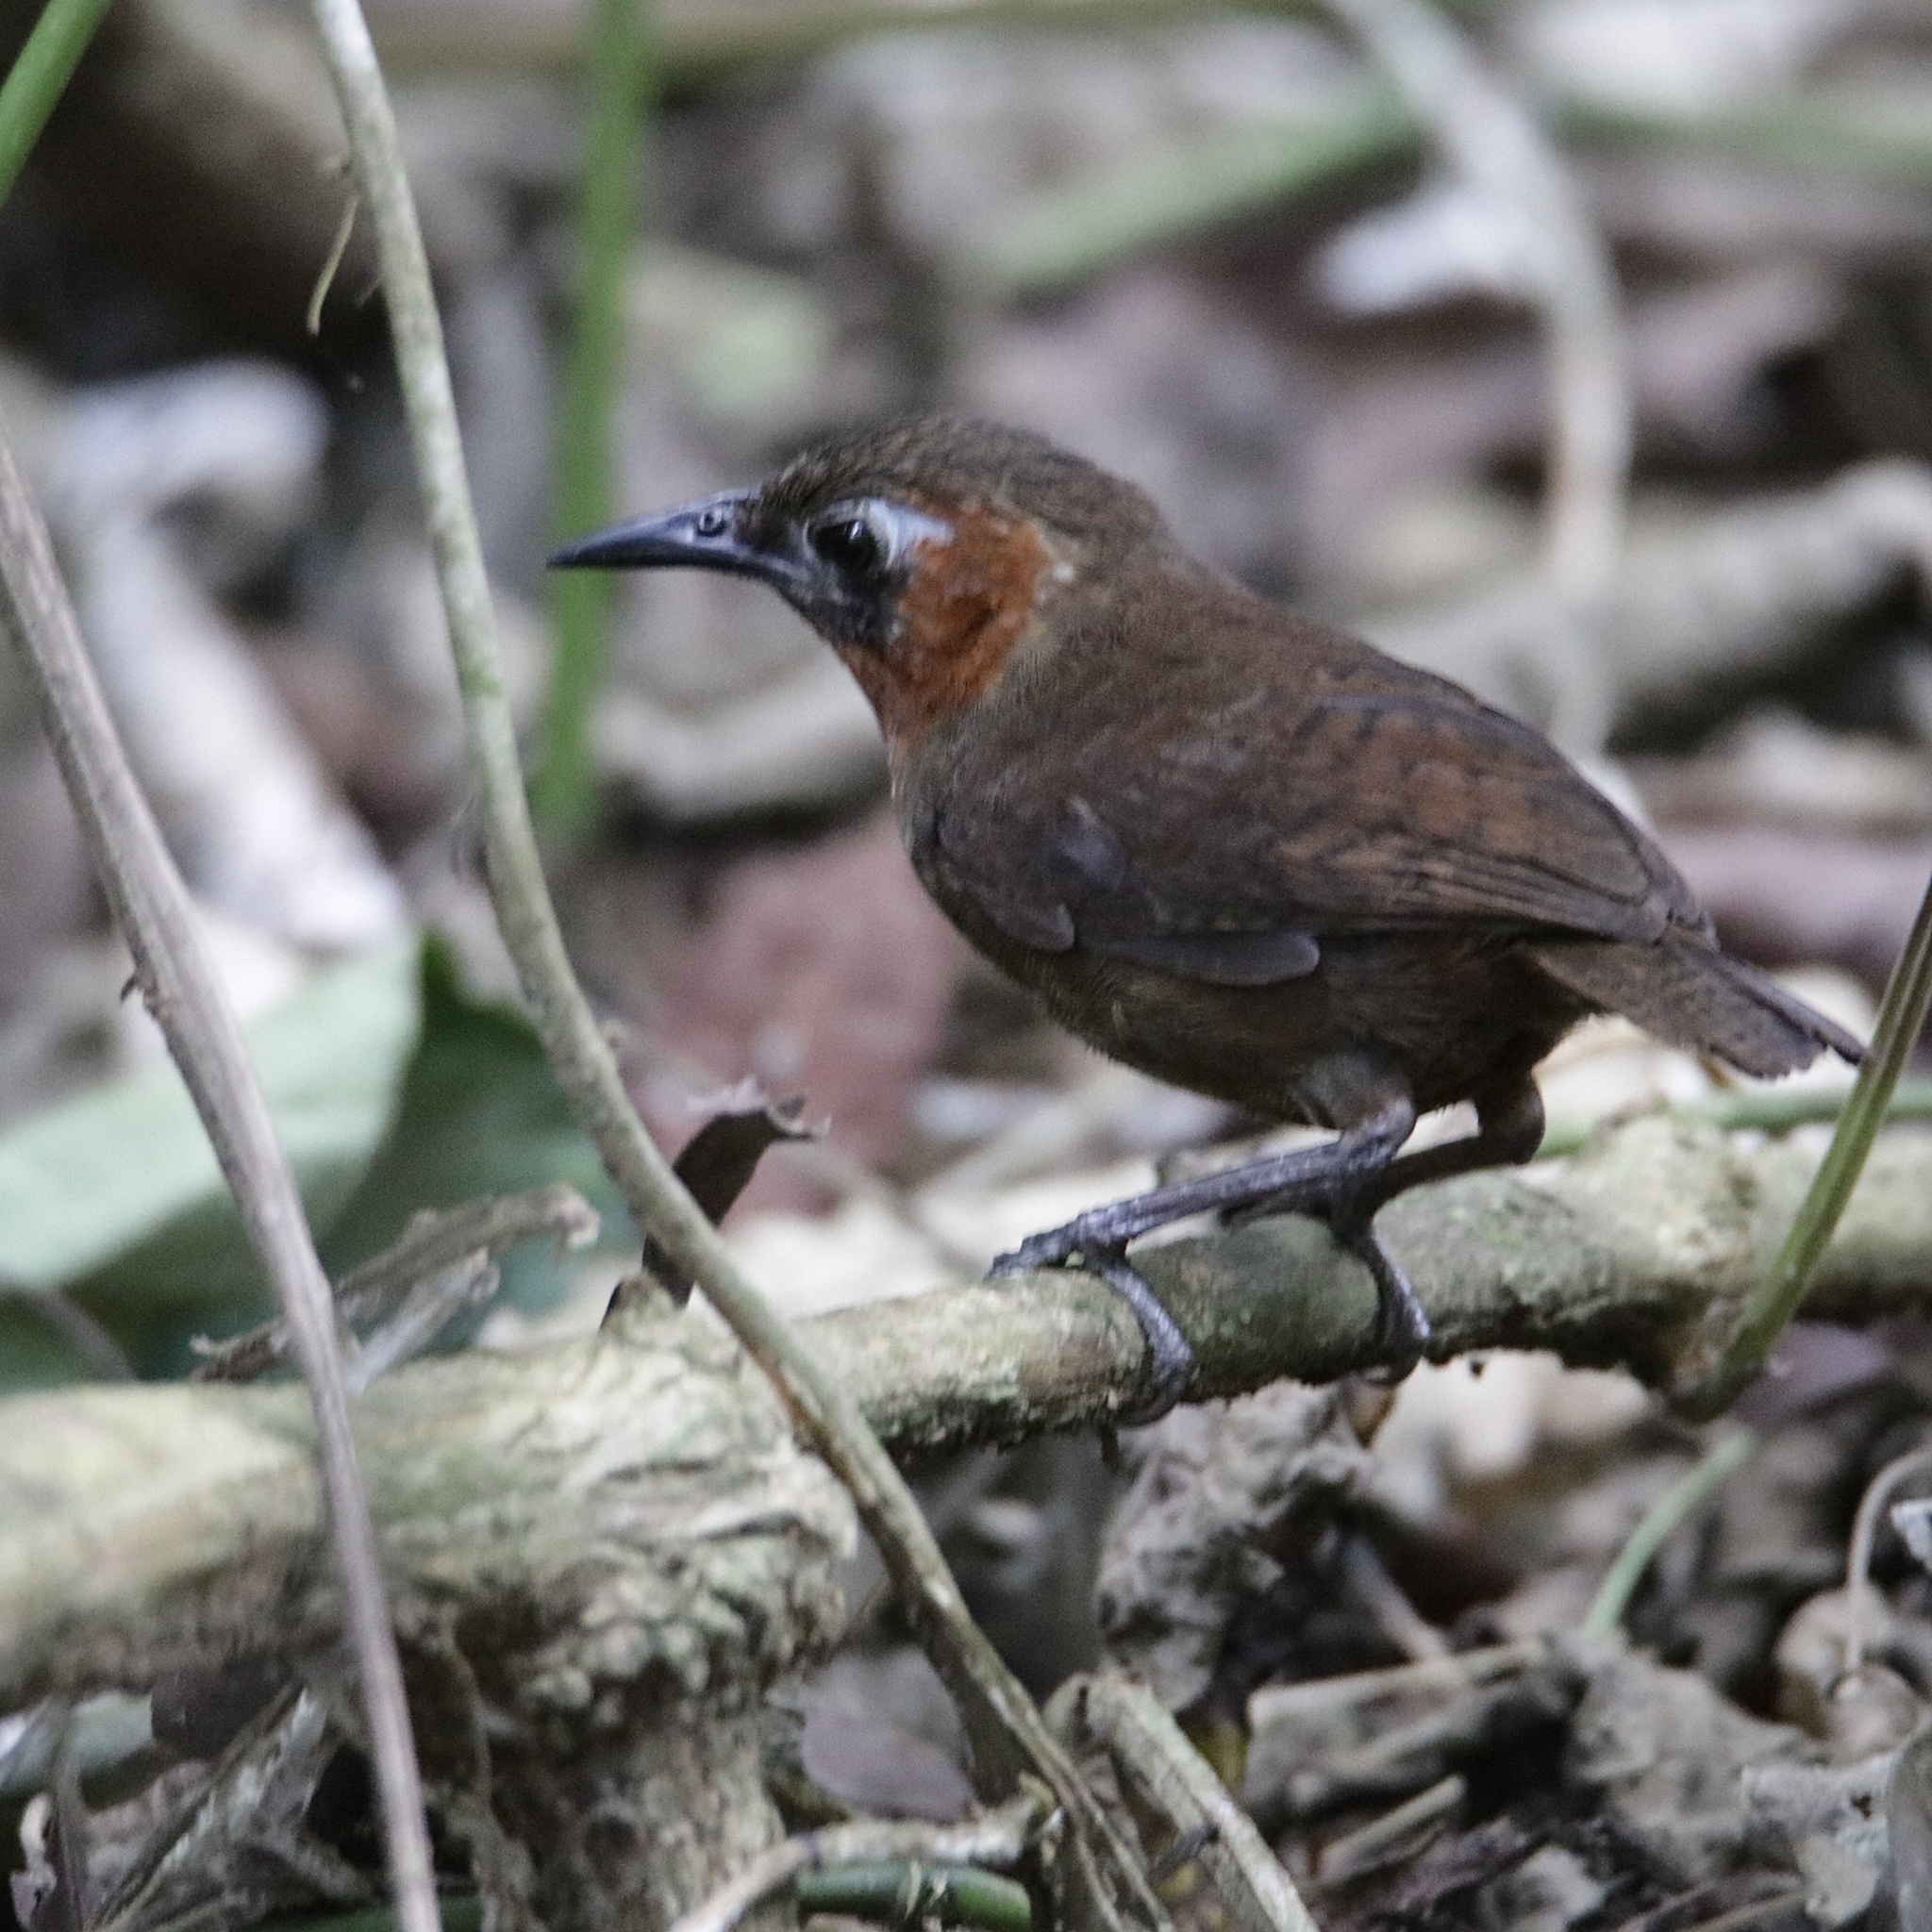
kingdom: Animalia
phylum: Chordata
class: Aves
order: Passeriformes
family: Troglodytidae
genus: Cyphorhinus
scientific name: Cyphorhinus phaeocephalus
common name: Song wren
